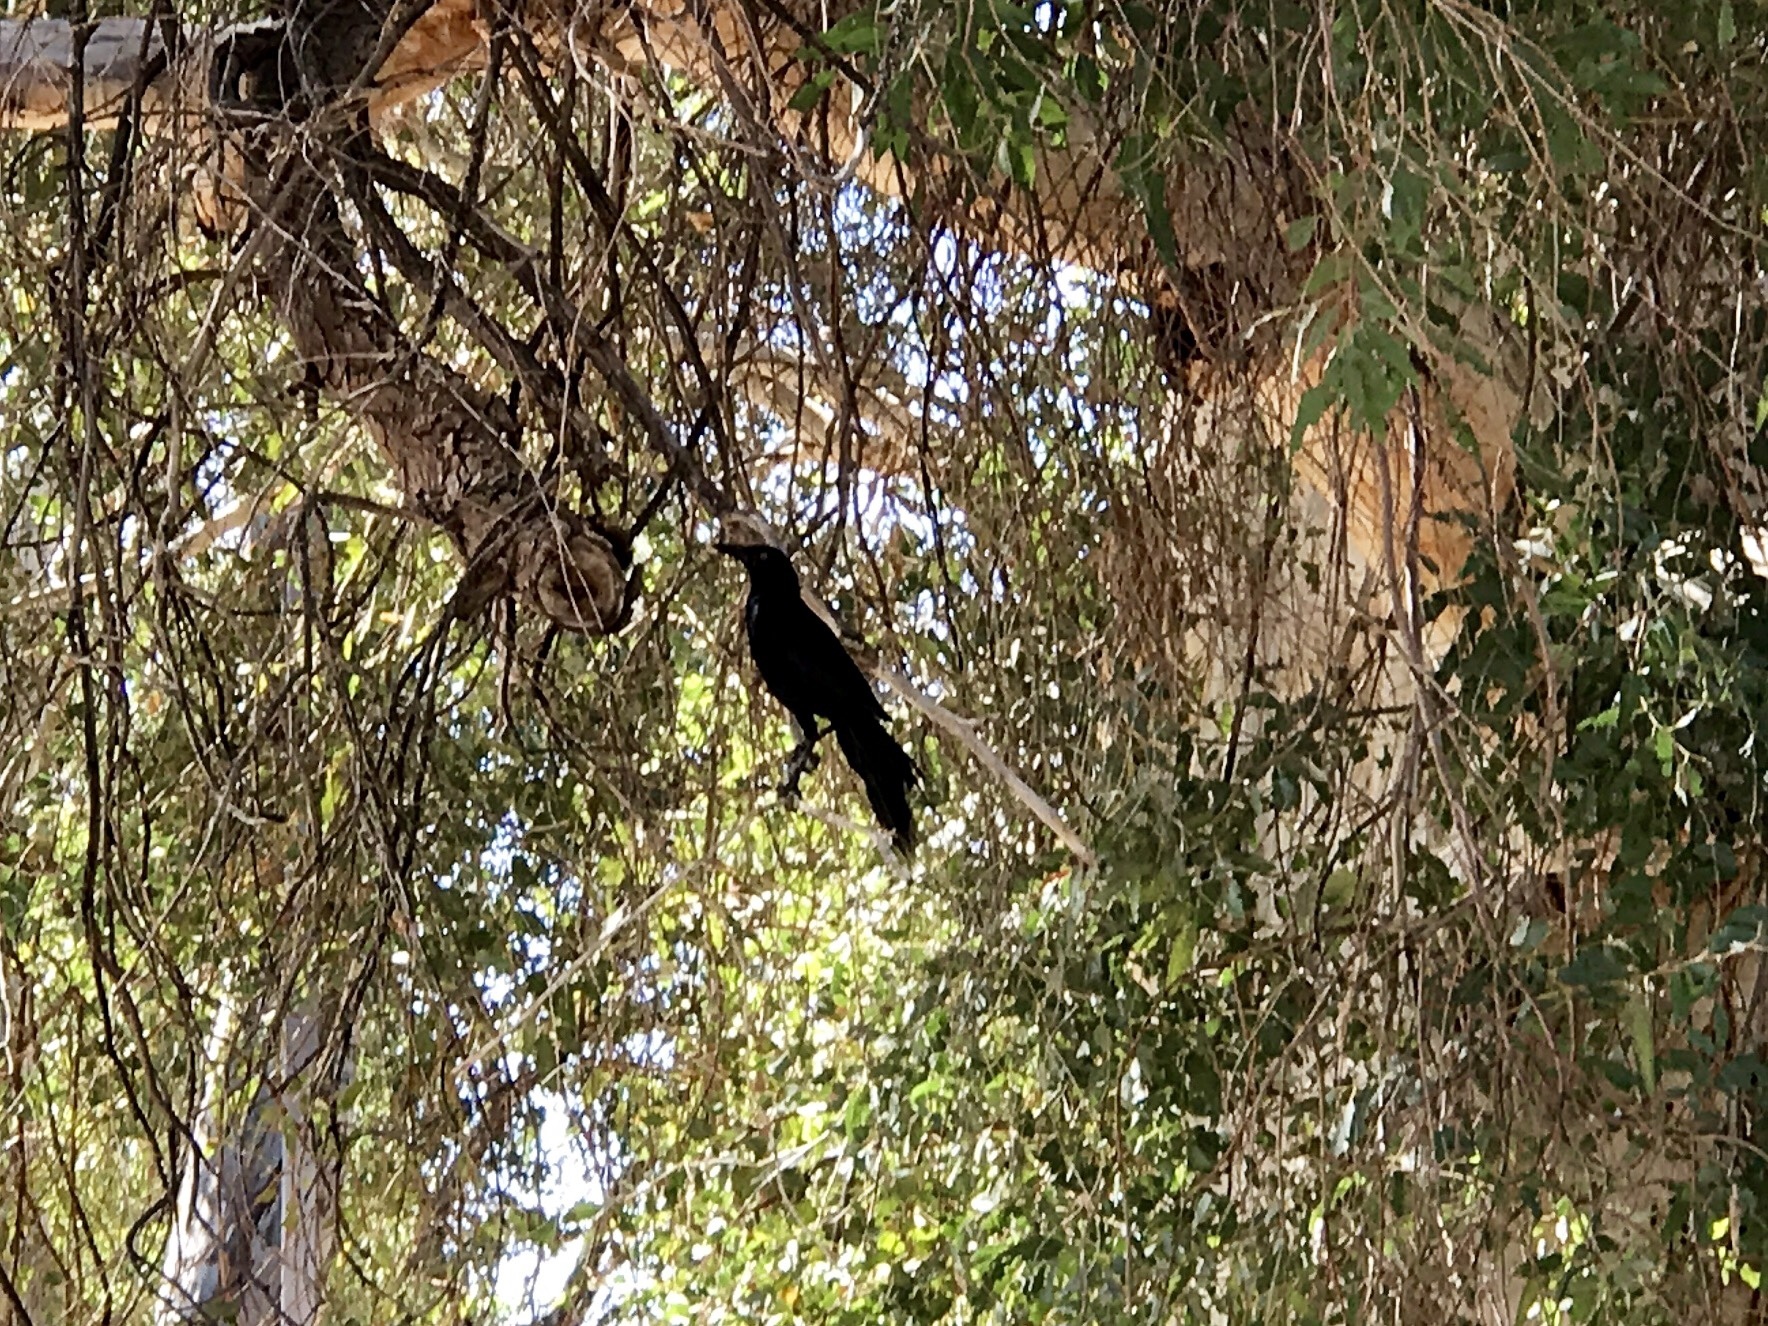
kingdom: Animalia
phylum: Chordata
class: Aves
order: Passeriformes
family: Icteridae
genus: Quiscalus
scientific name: Quiscalus mexicanus
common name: Great-tailed grackle
